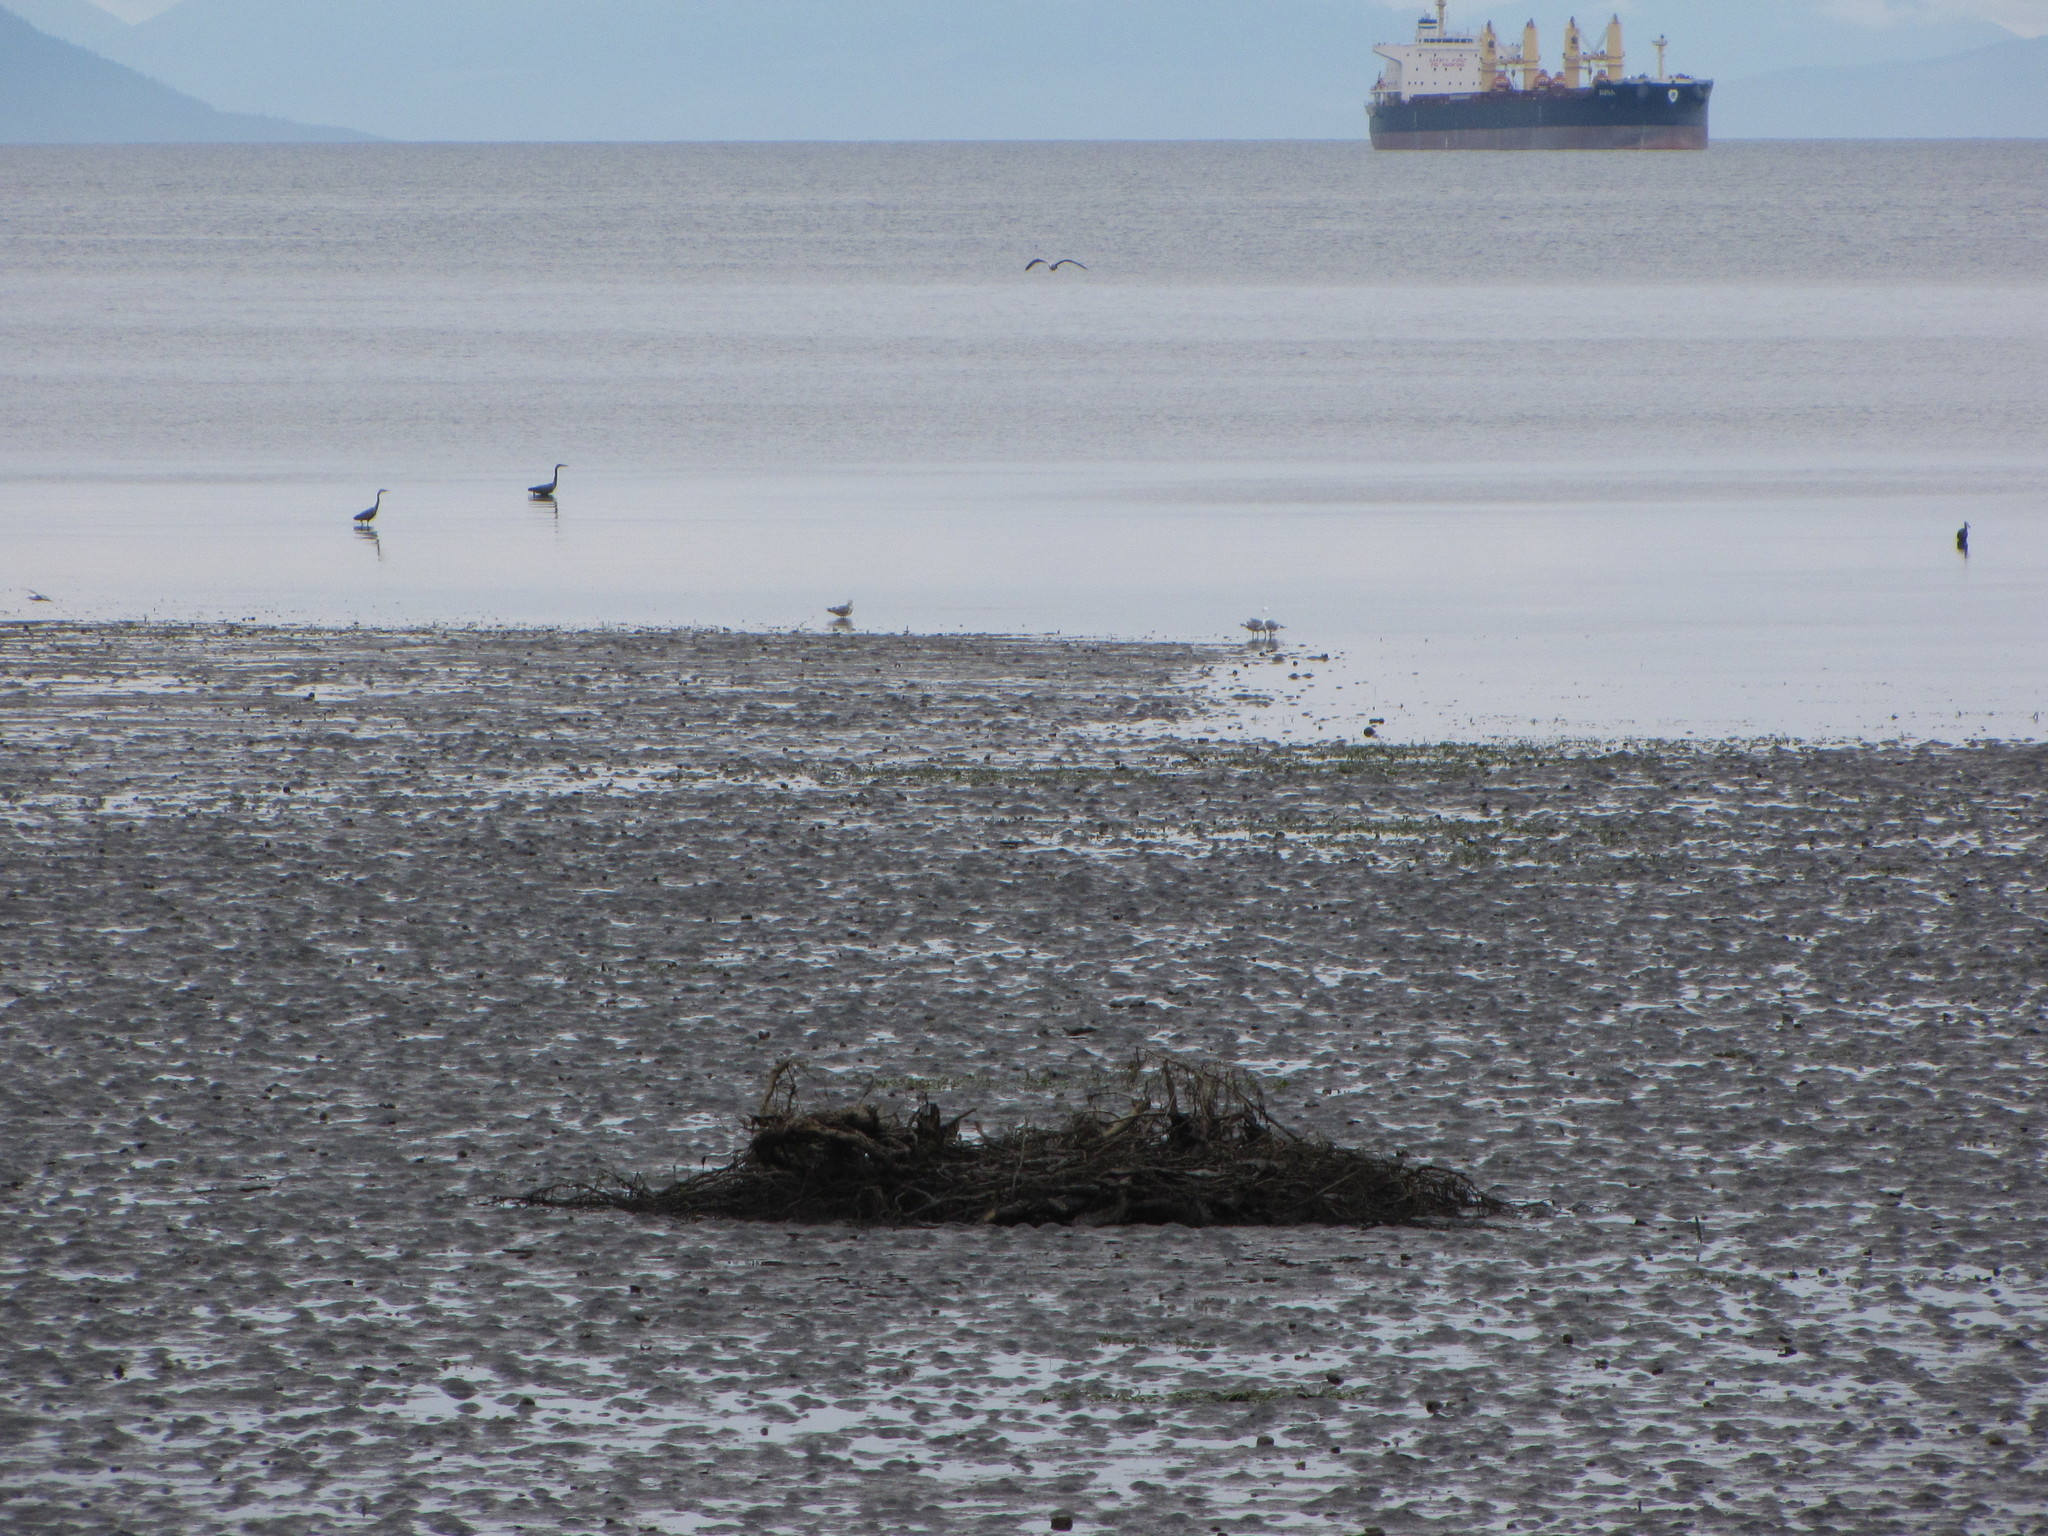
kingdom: Animalia
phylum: Chordata
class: Aves
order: Pelecaniformes
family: Ardeidae
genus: Ardea
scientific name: Ardea herodias
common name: Great blue heron
